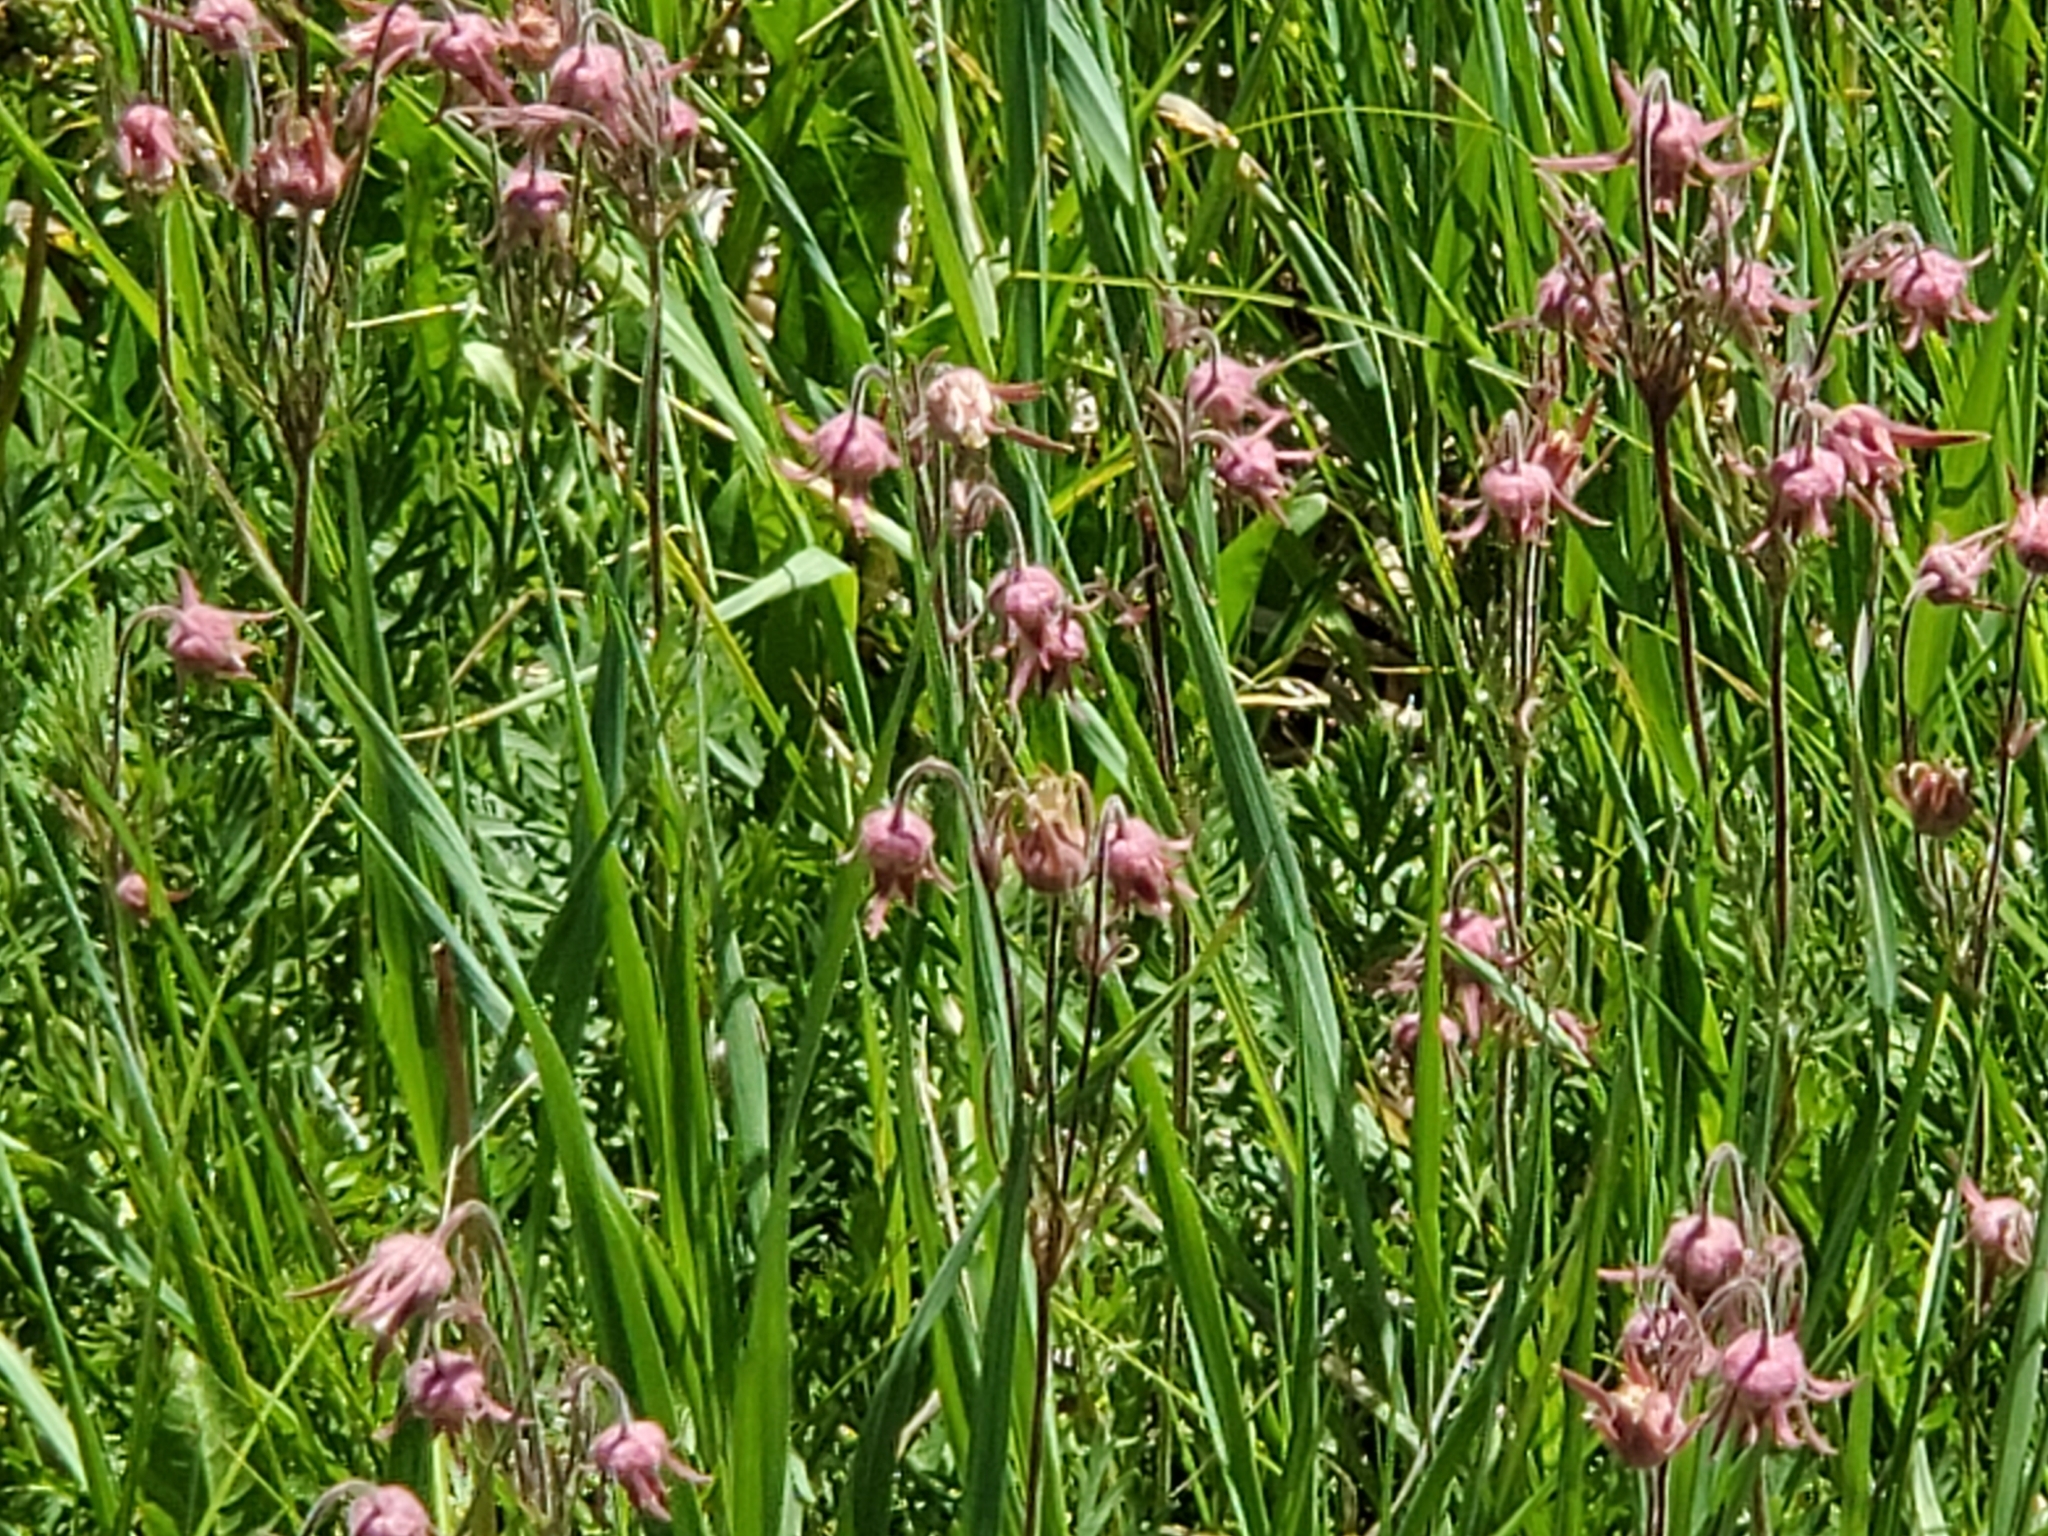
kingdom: Plantae
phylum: Tracheophyta
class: Magnoliopsida
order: Rosales
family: Rosaceae
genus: Geum
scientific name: Geum triflorum
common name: Old man's whiskers
